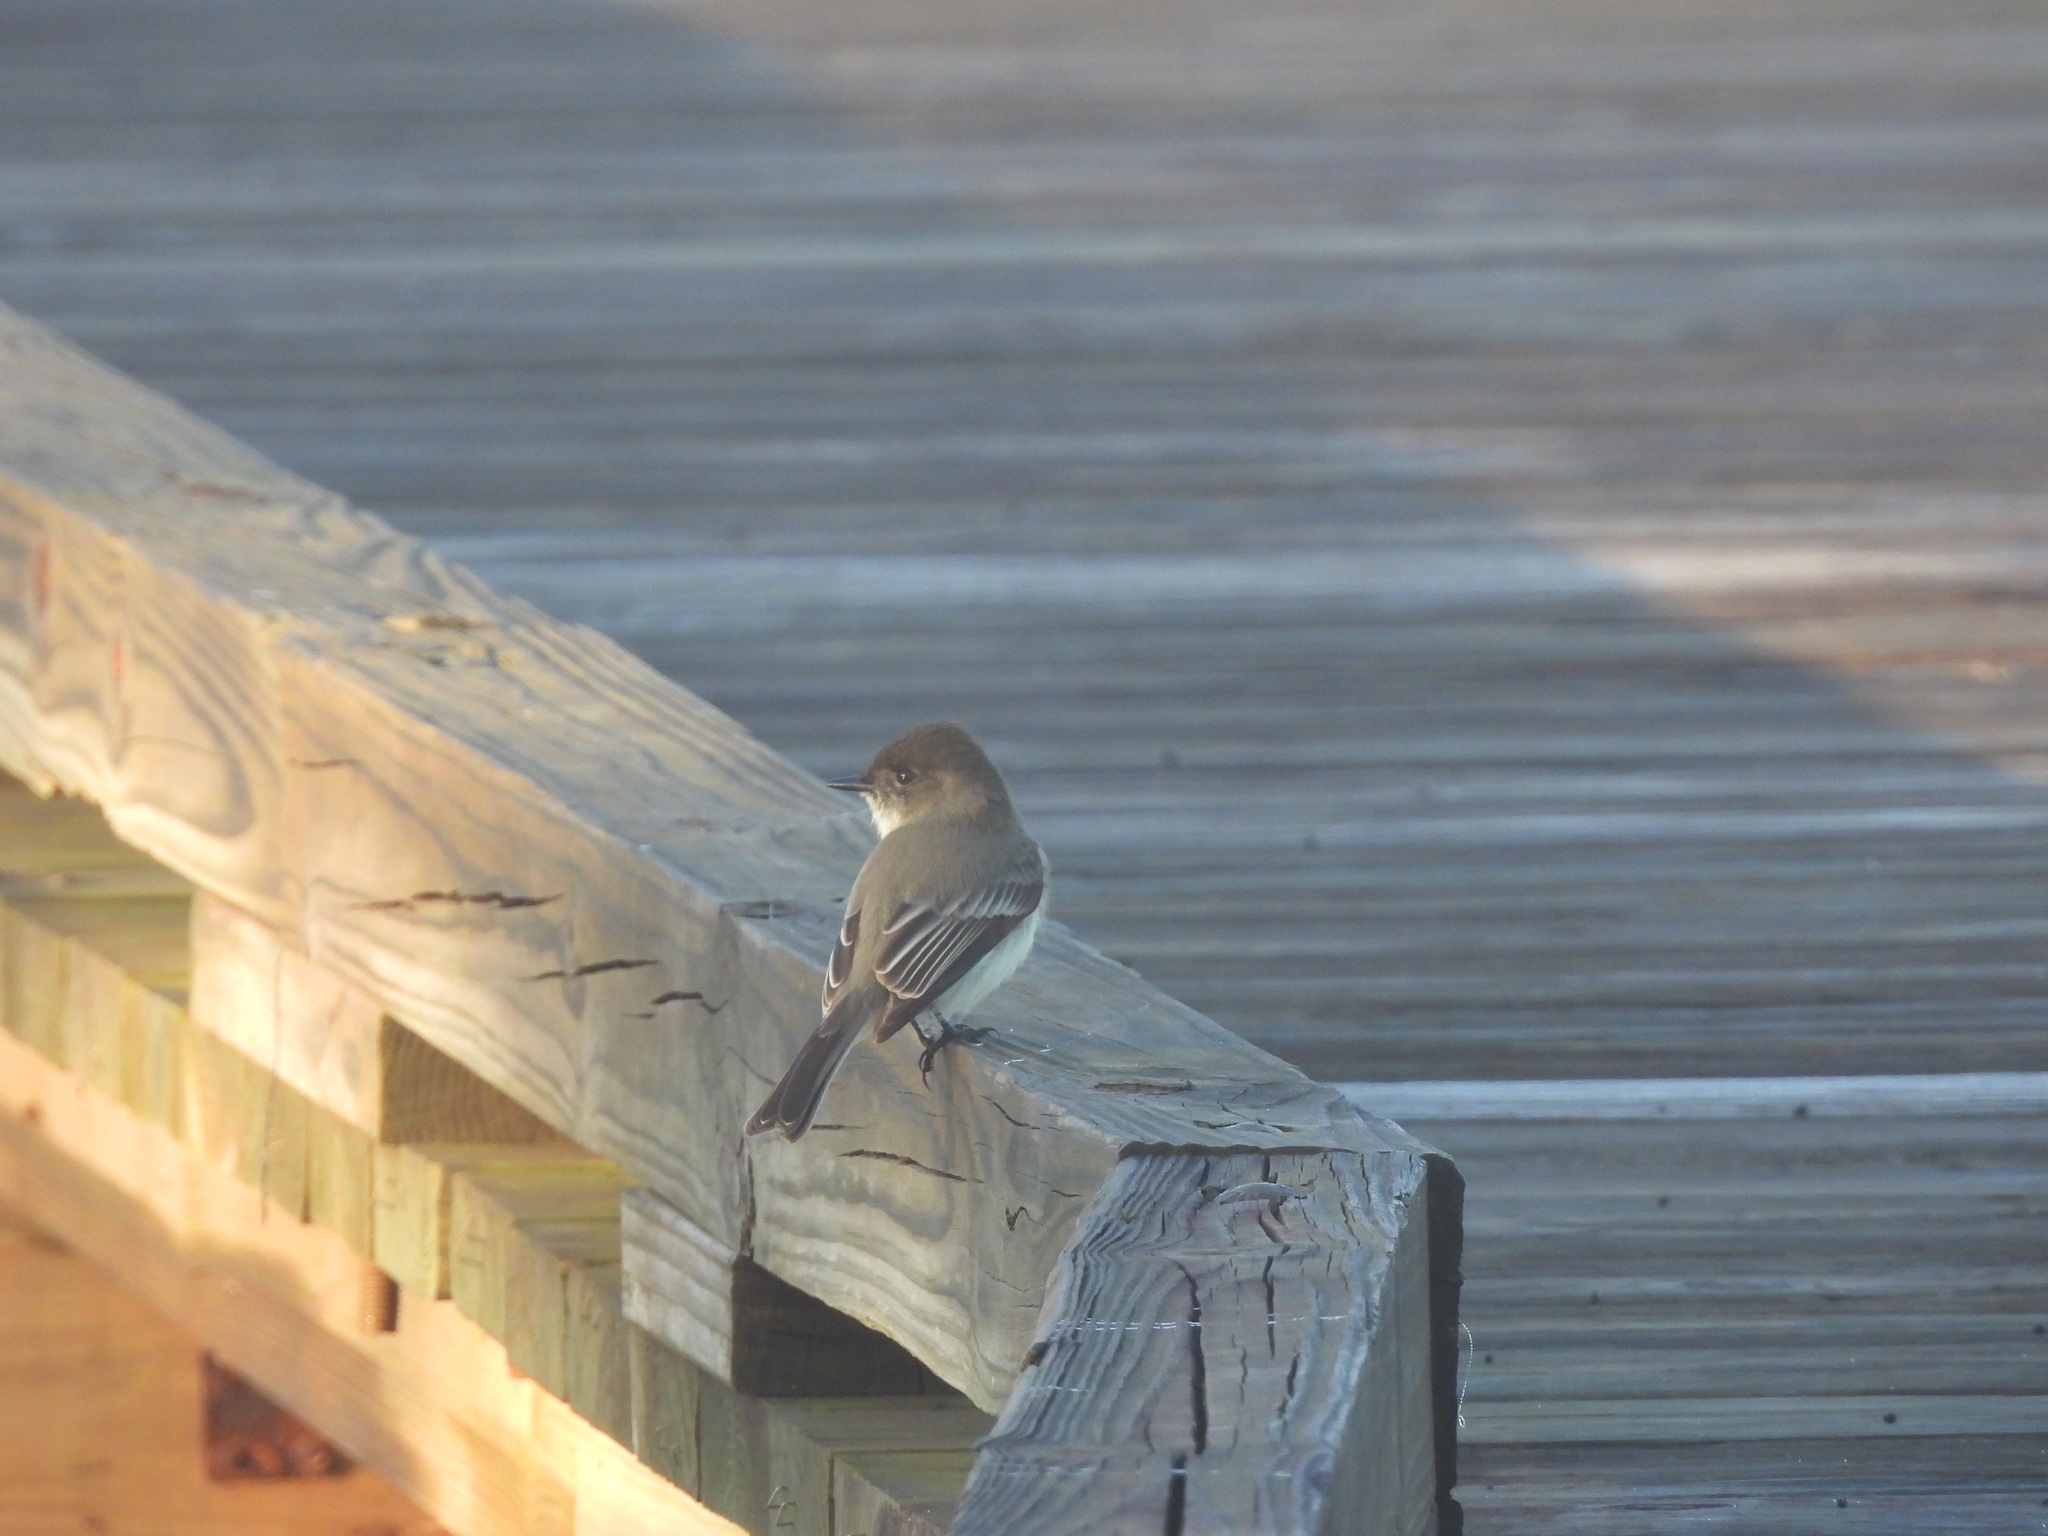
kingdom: Animalia
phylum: Chordata
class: Aves
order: Passeriformes
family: Tyrannidae
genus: Sayornis
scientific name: Sayornis phoebe
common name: Eastern phoebe
